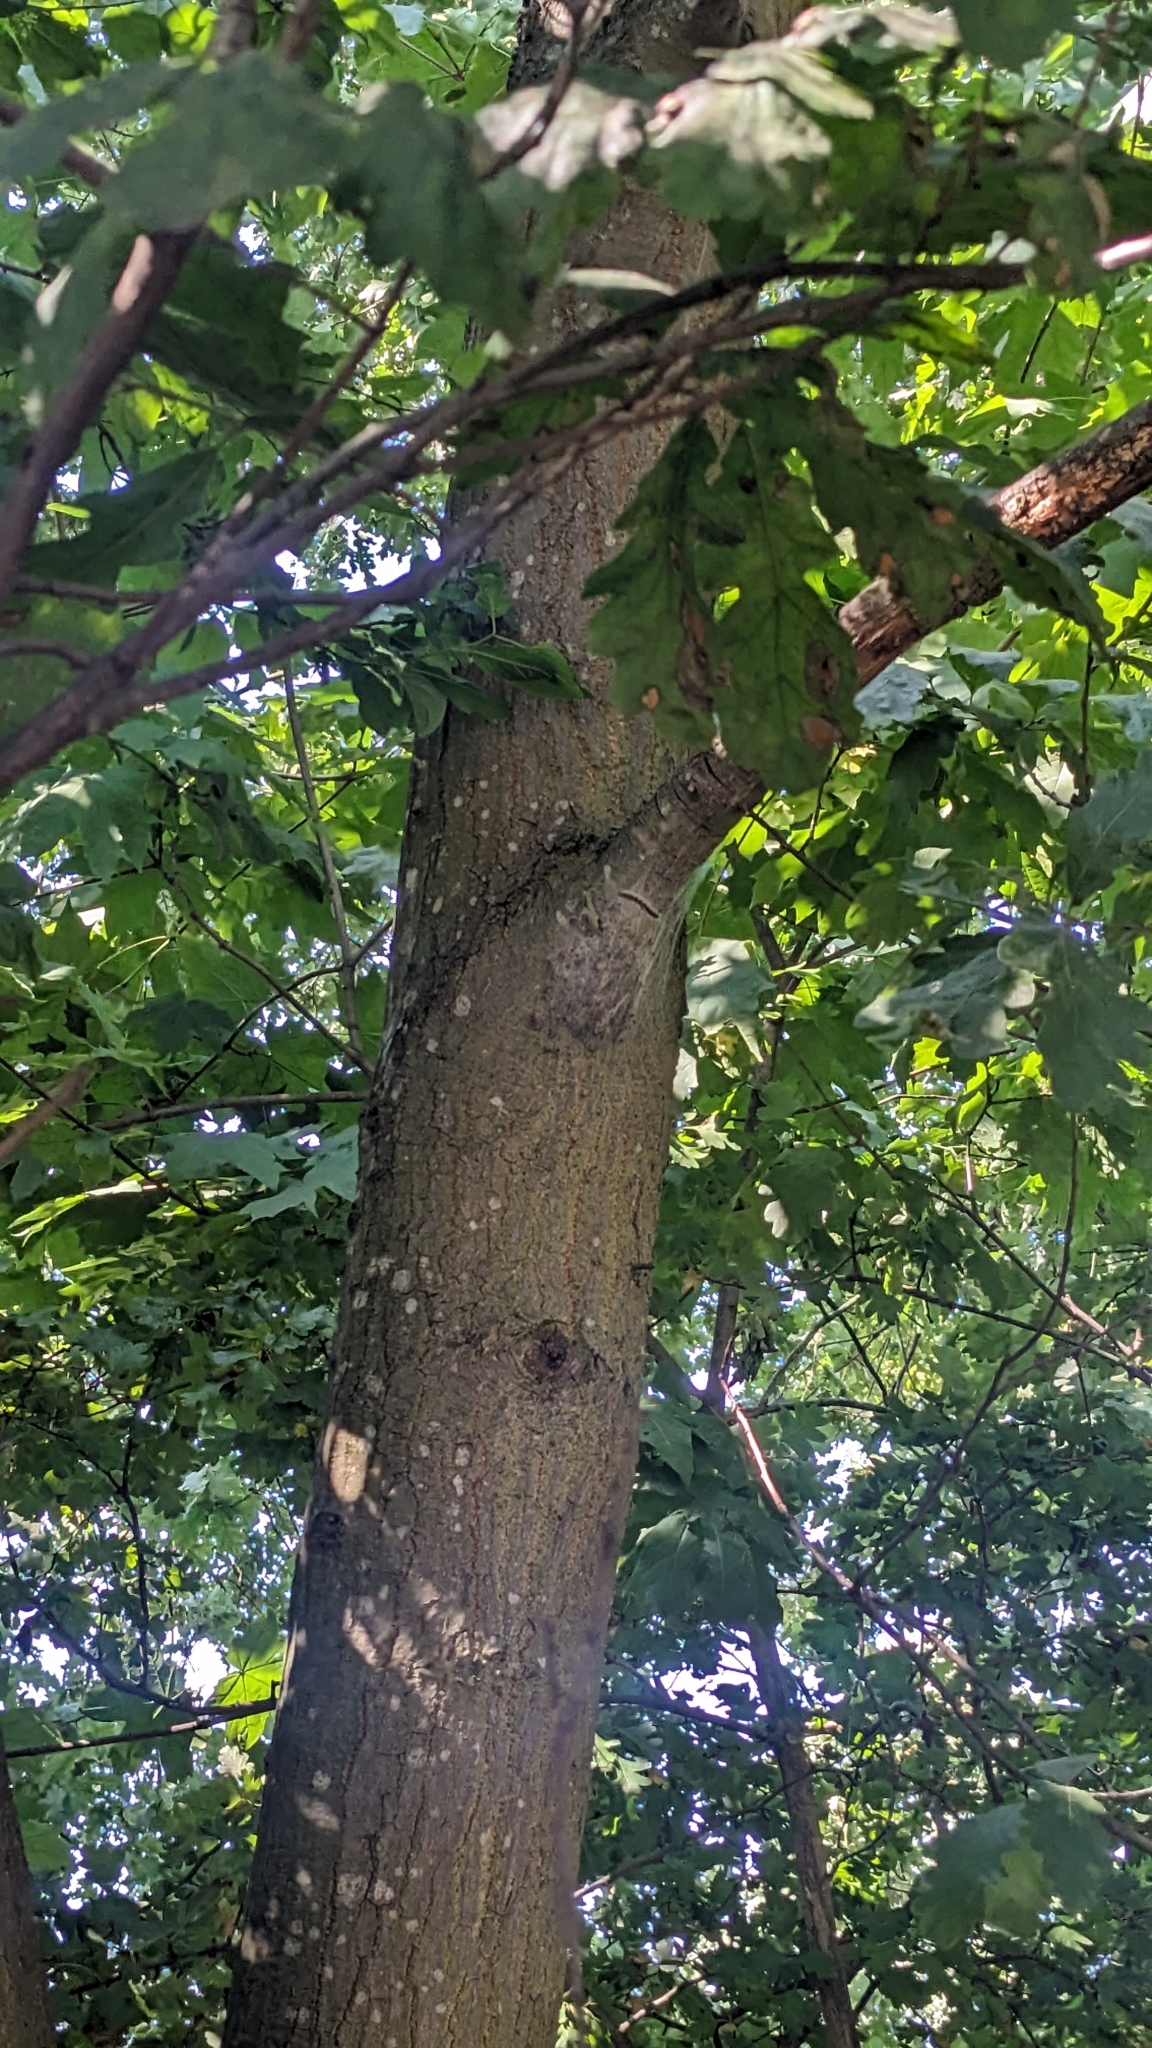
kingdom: Animalia
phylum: Arthropoda
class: Insecta
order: Lepidoptera
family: Notodontidae
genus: Thaumetopoea
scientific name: Thaumetopoea processionea
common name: Oak processionea
